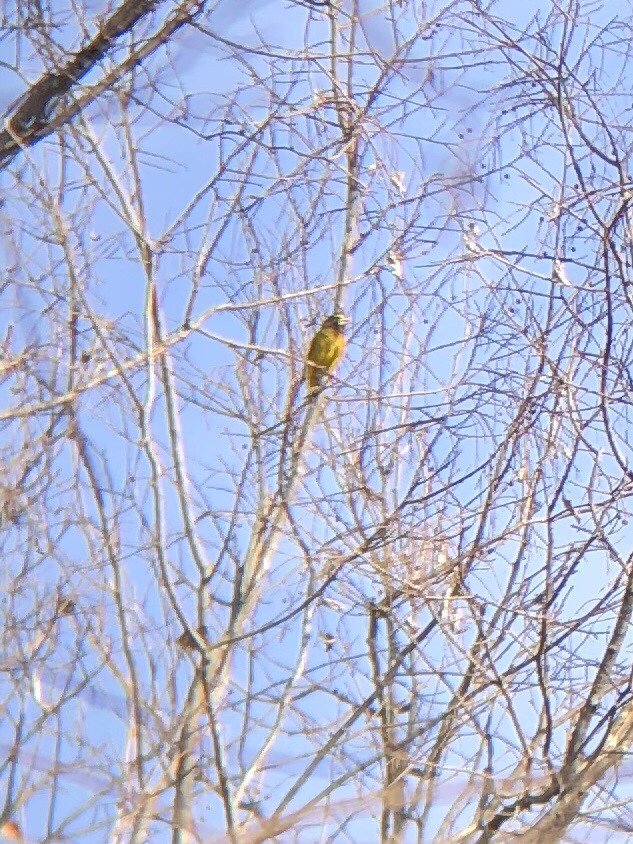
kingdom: Animalia
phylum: Chordata
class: Aves
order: Passeriformes
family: Fringillidae
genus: Hesperiphona
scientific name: Hesperiphona vespertina
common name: Evening grosbeak
